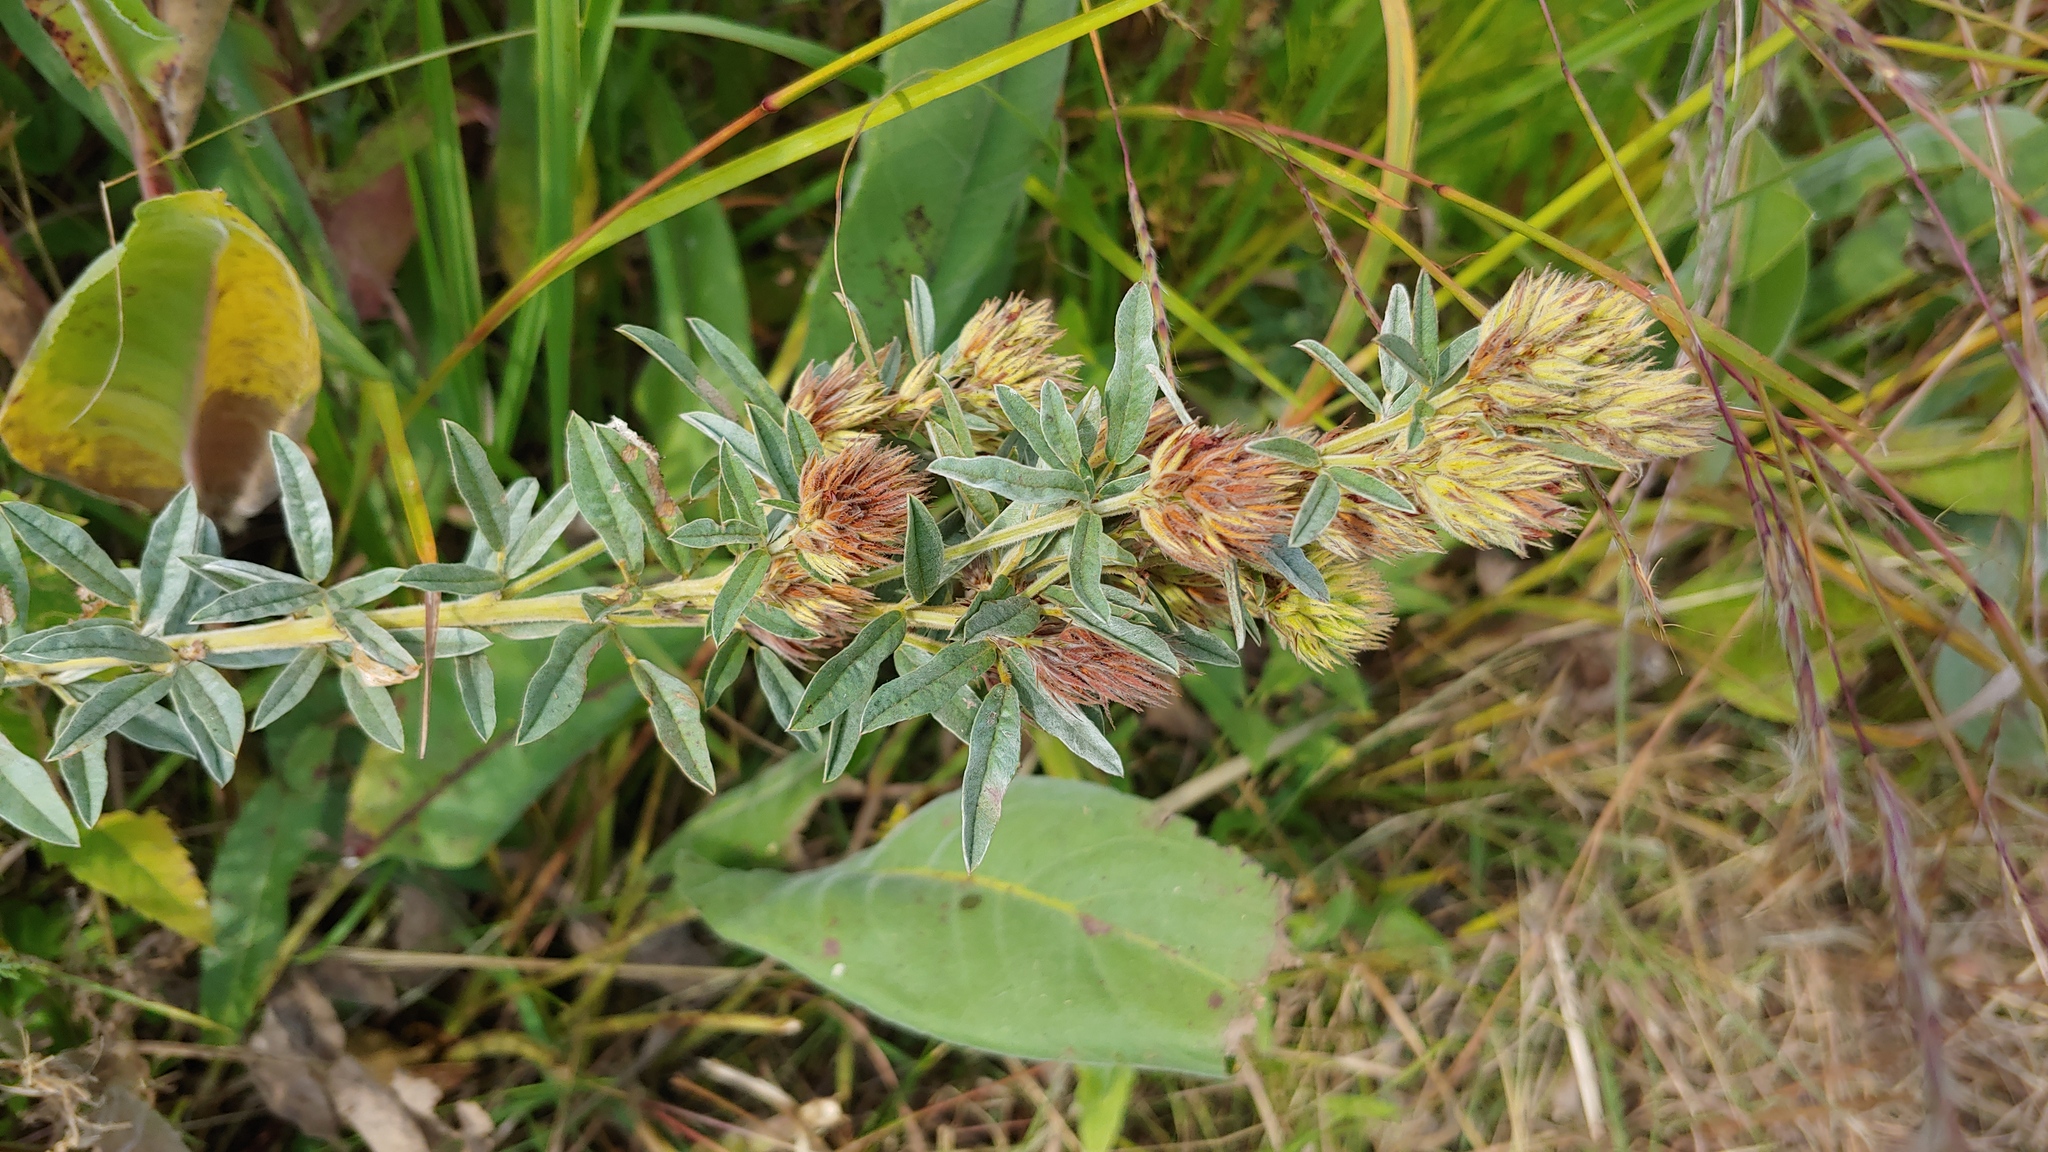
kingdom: Plantae
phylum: Tracheophyta
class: Magnoliopsida
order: Fabales
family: Fabaceae
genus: Lespedeza
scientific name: Lespedeza capitata
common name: Dusty clover
